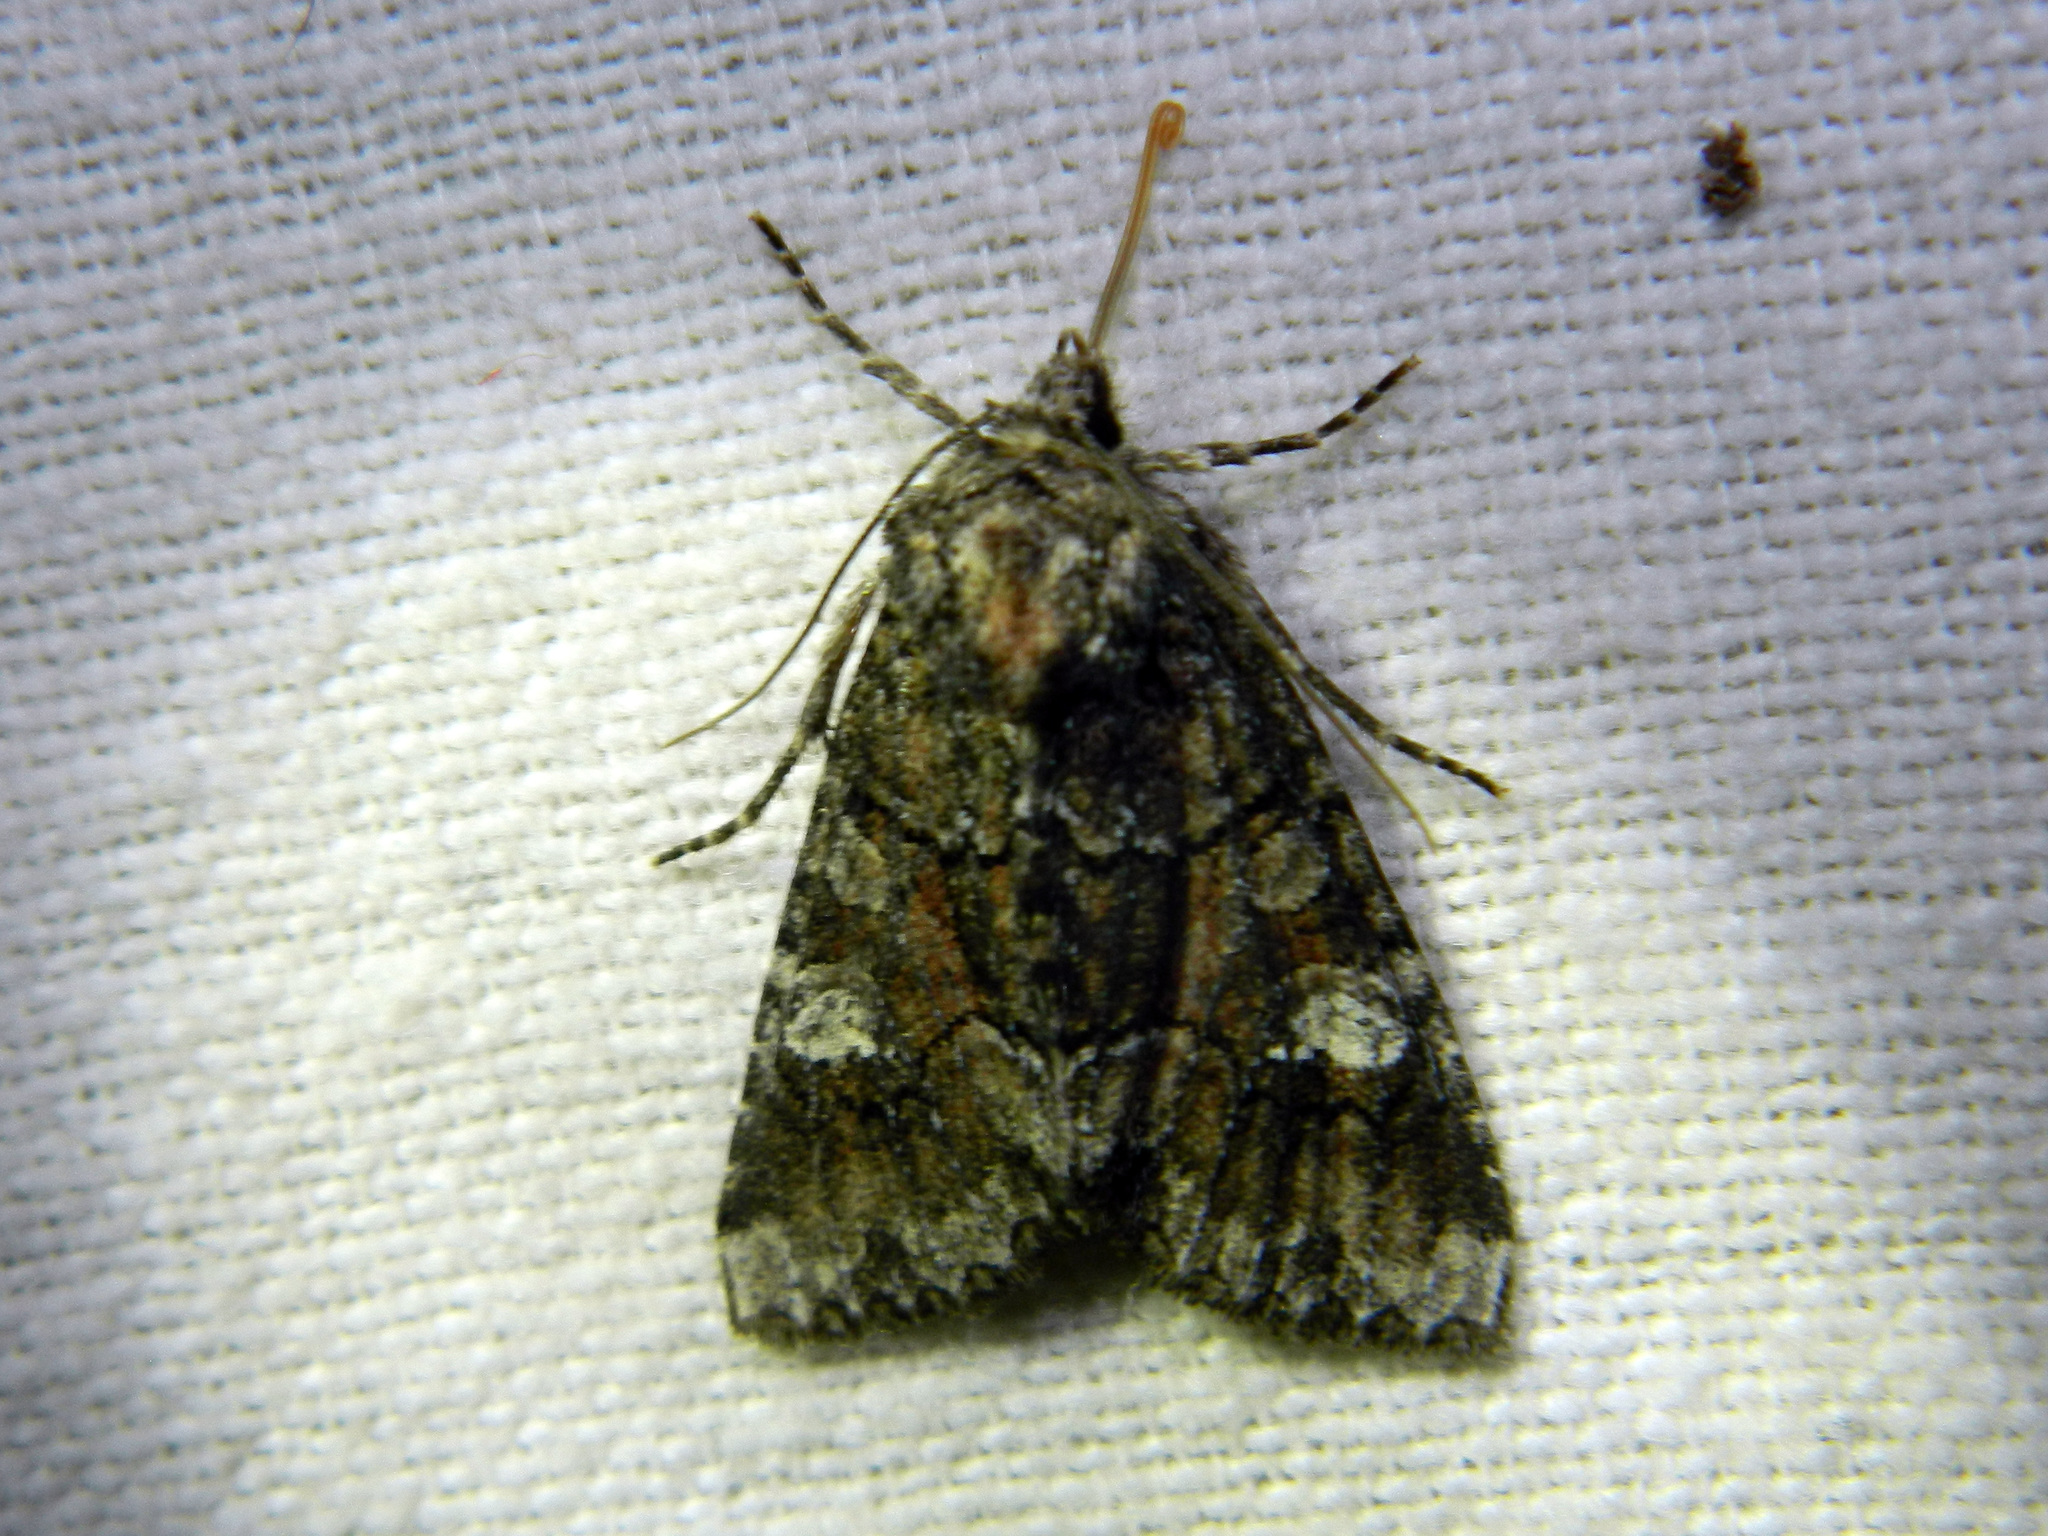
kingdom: Animalia
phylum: Arthropoda
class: Insecta
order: Lepidoptera
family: Noctuidae
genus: Fishia
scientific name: Fishia illocata
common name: Wandering brocade moth
